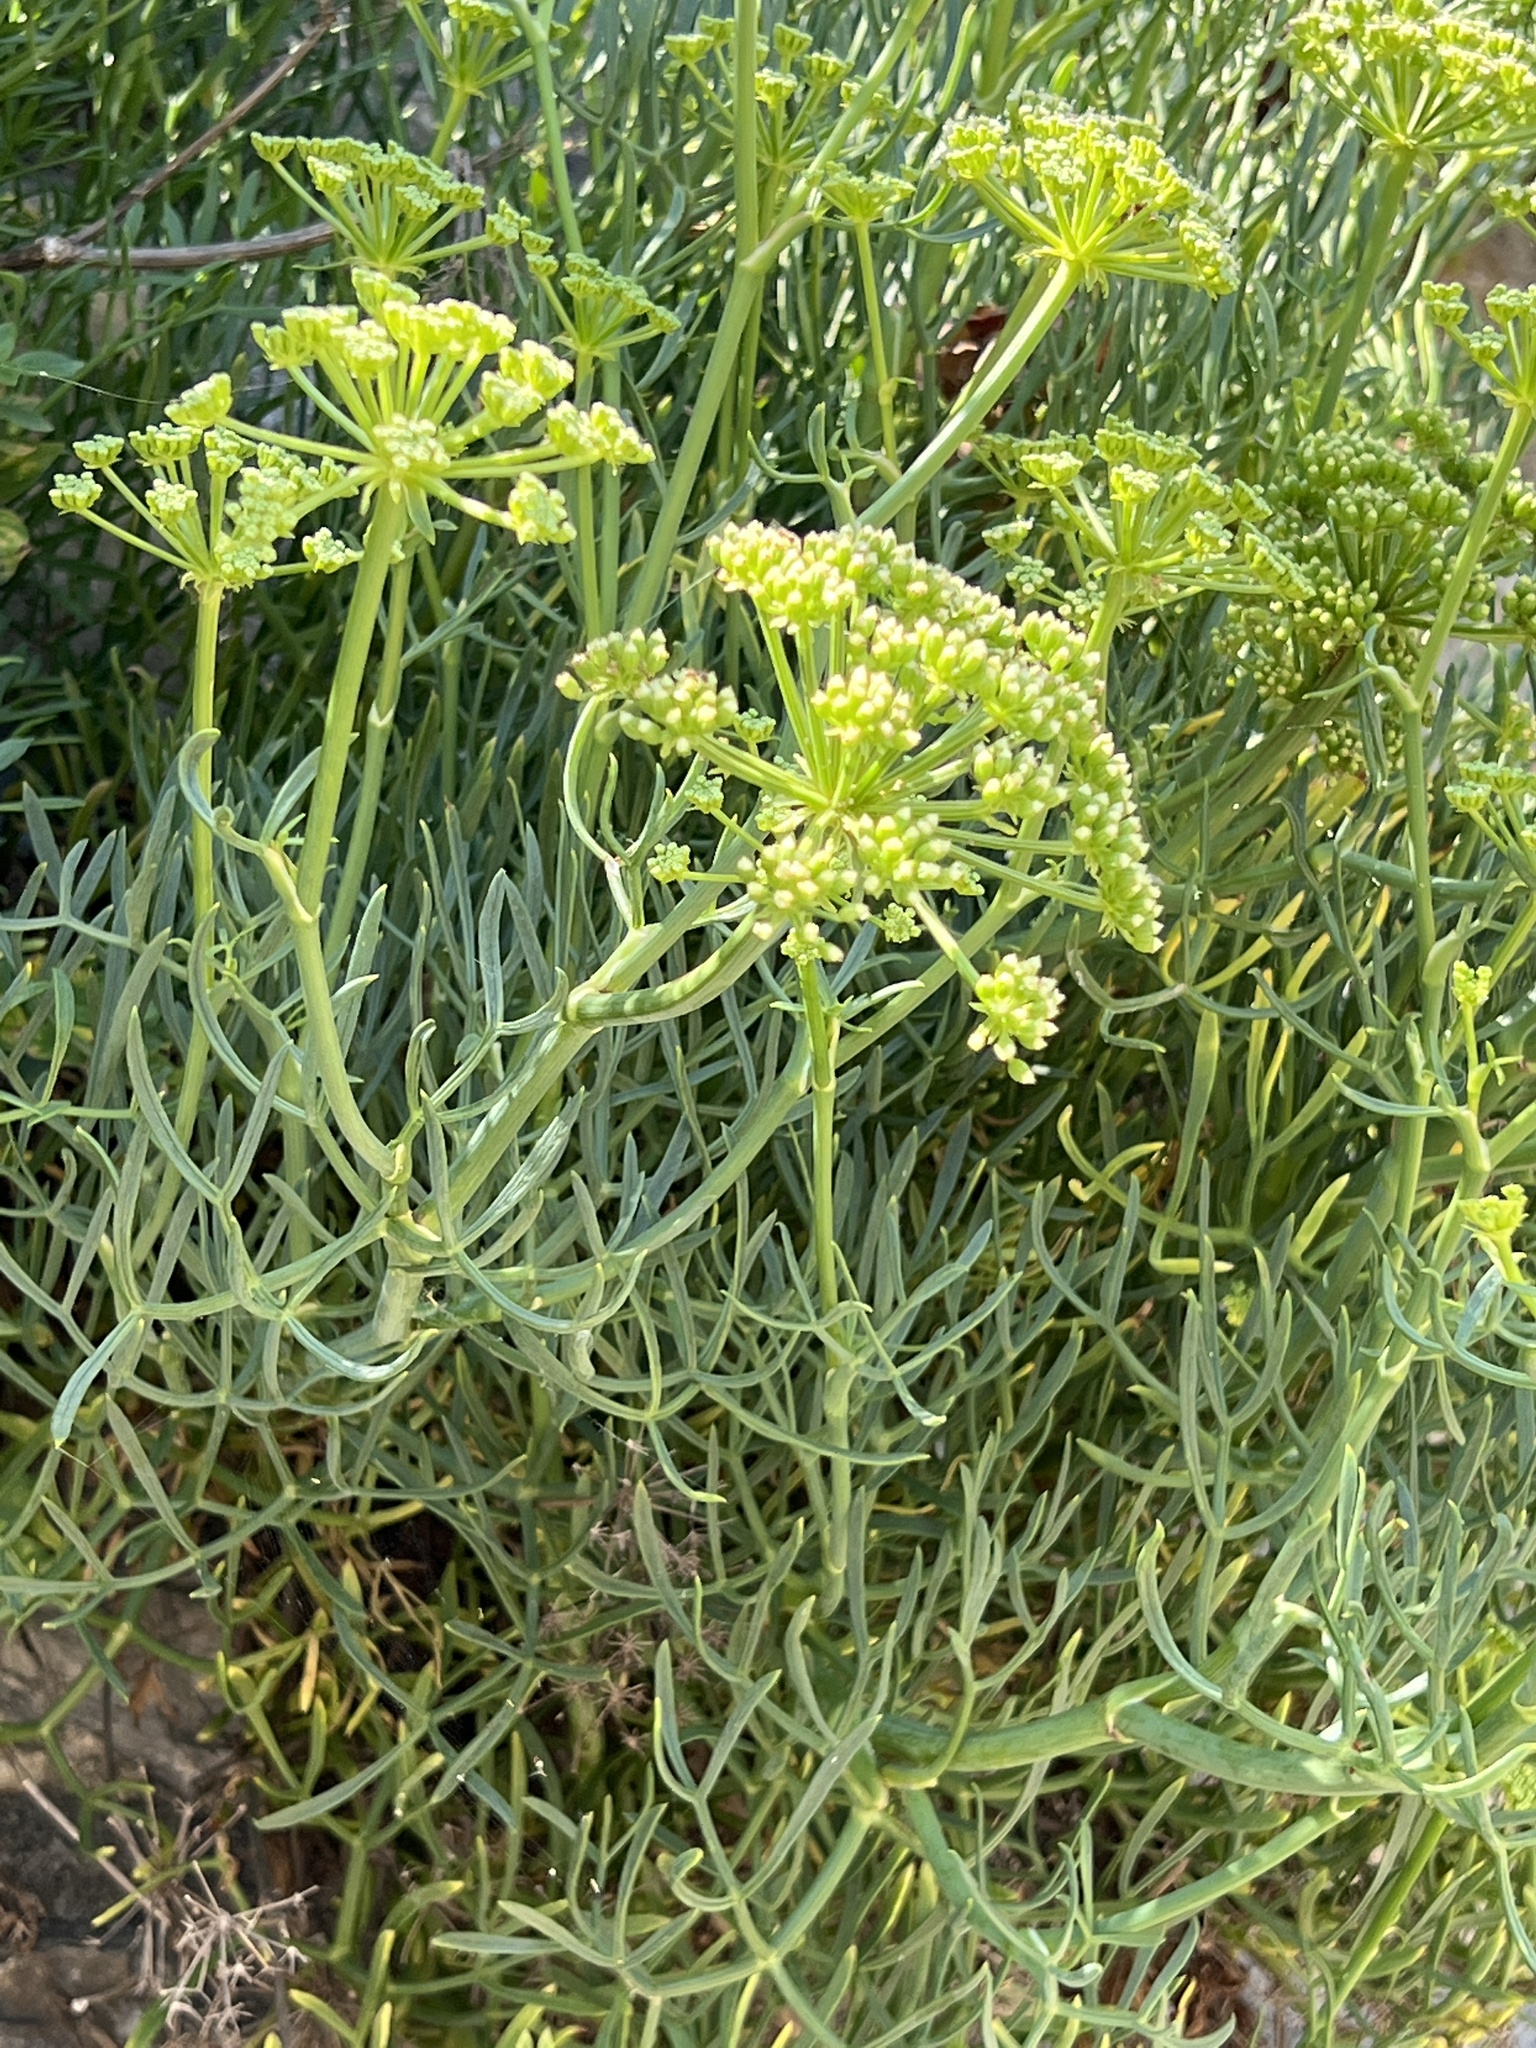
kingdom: Plantae
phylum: Tracheophyta
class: Magnoliopsida
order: Apiales
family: Apiaceae
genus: Crithmum
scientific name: Crithmum maritimum
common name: Rock samphire
